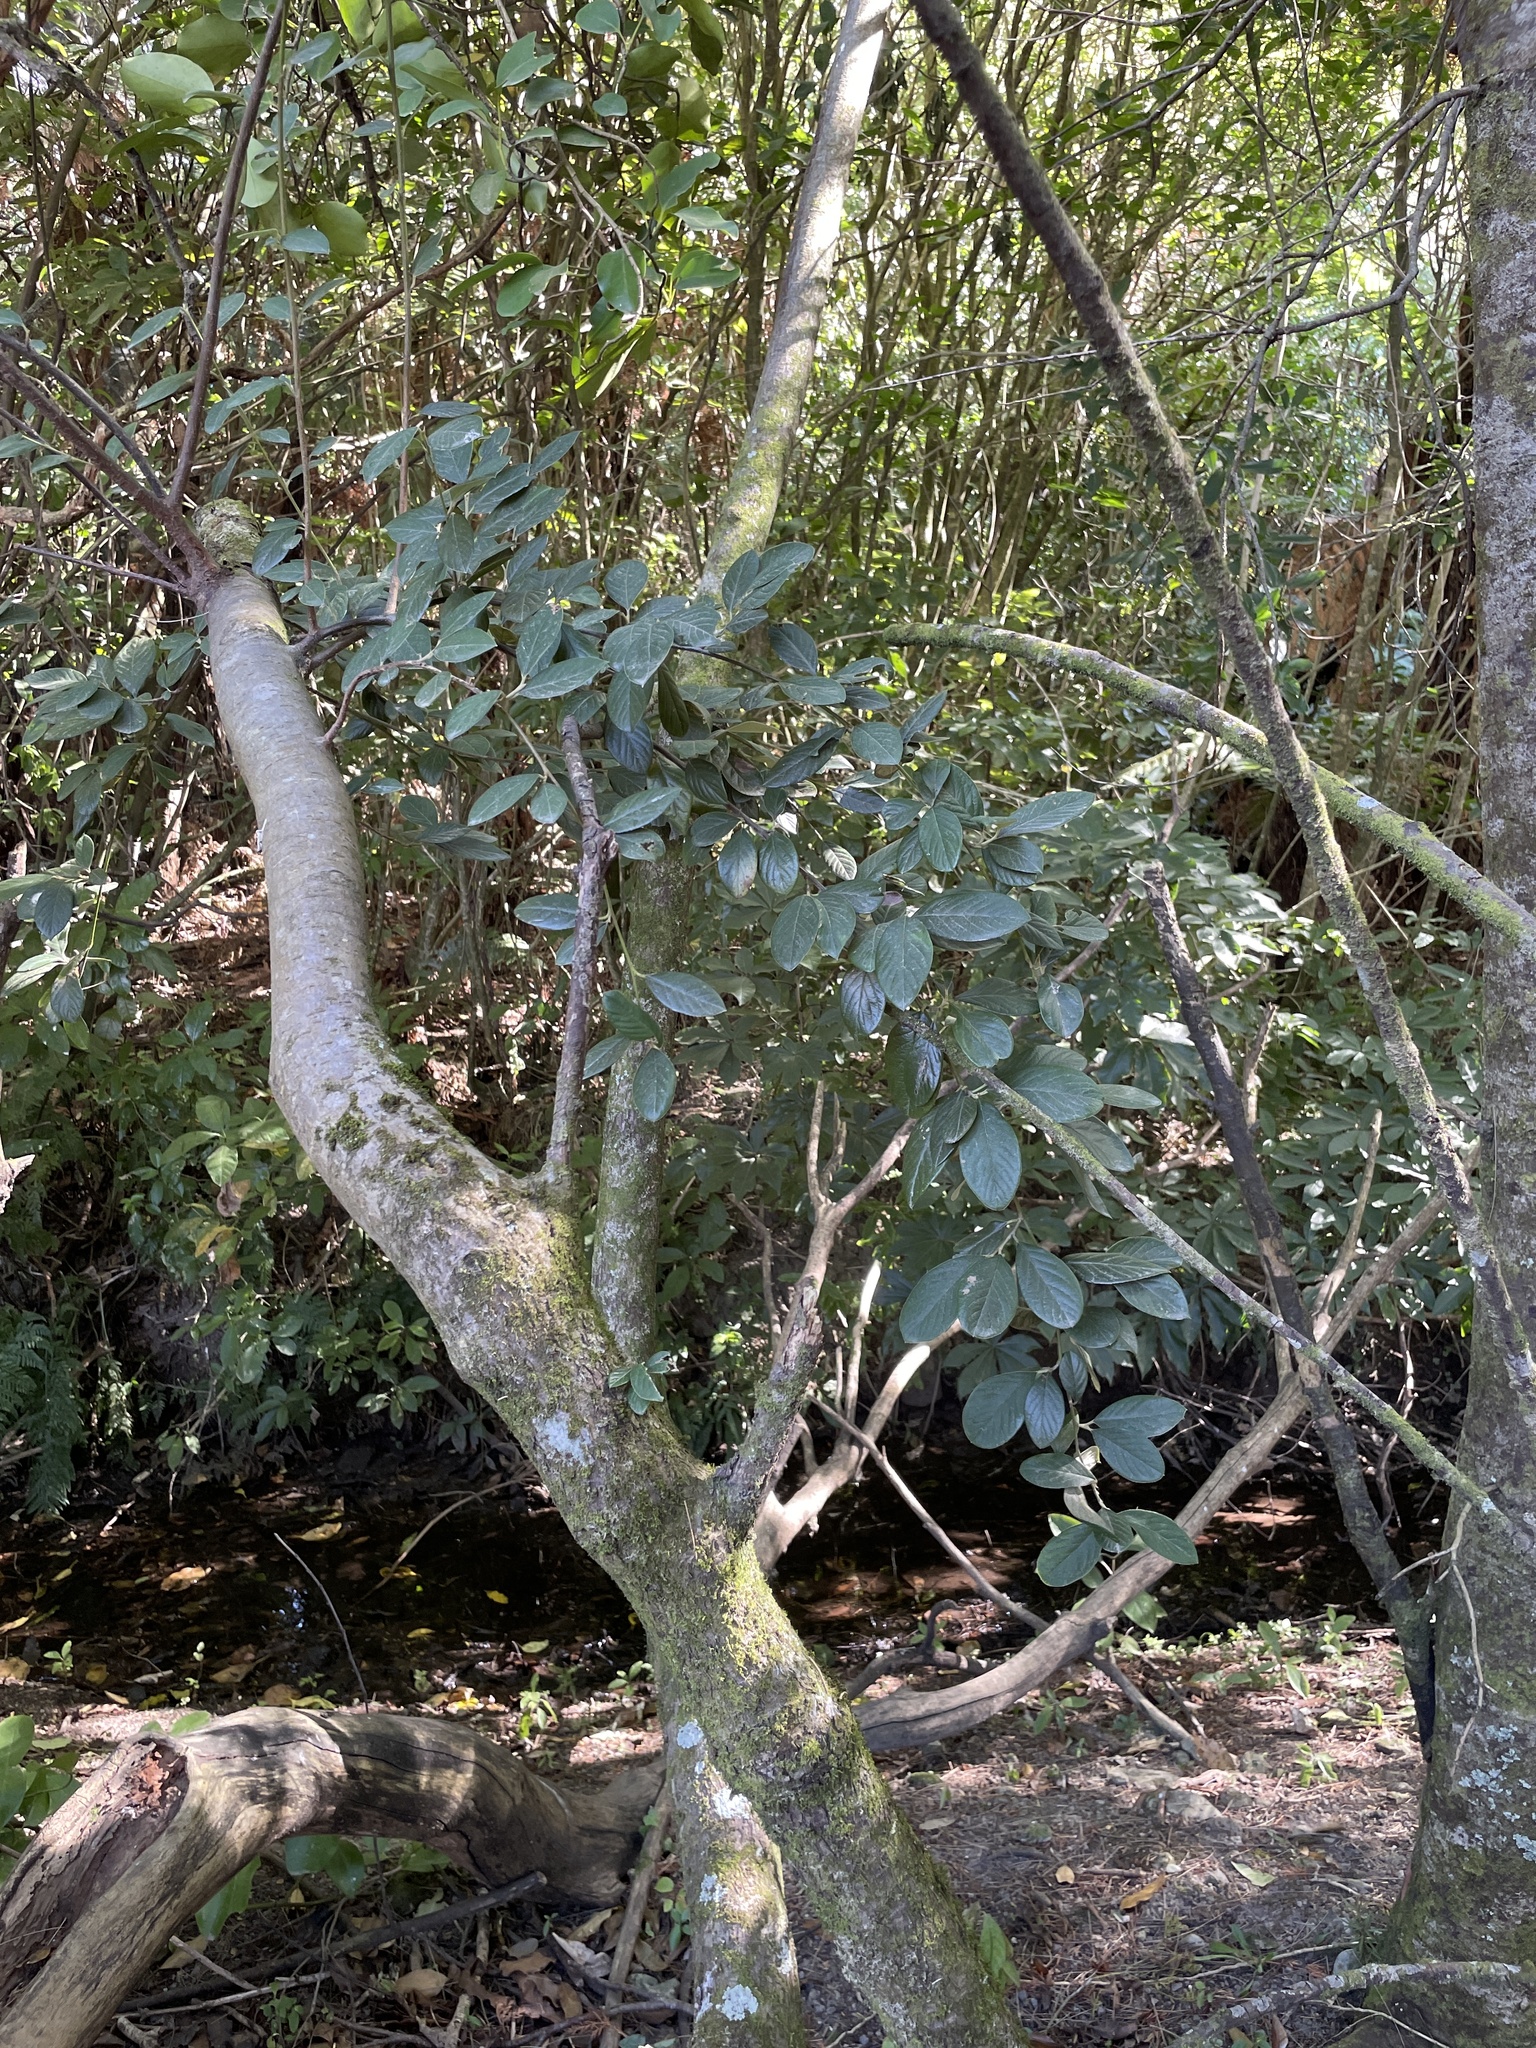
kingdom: Plantae
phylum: Tracheophyta
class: Magnoliopsida
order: Rosales
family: Rosaceae
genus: Cotoneaster
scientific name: Cotoneaster coriaceus
